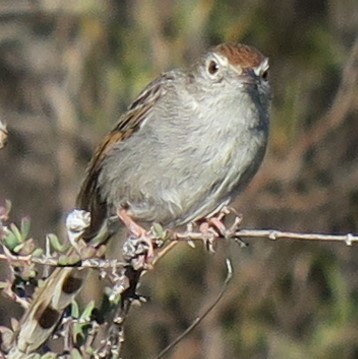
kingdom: Animalia
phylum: Chordata
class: Aves
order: Passeriformes
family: Cisticolidae
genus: Cisticola
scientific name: Cisticola subruficapilla
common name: Grey-backed cisticola
